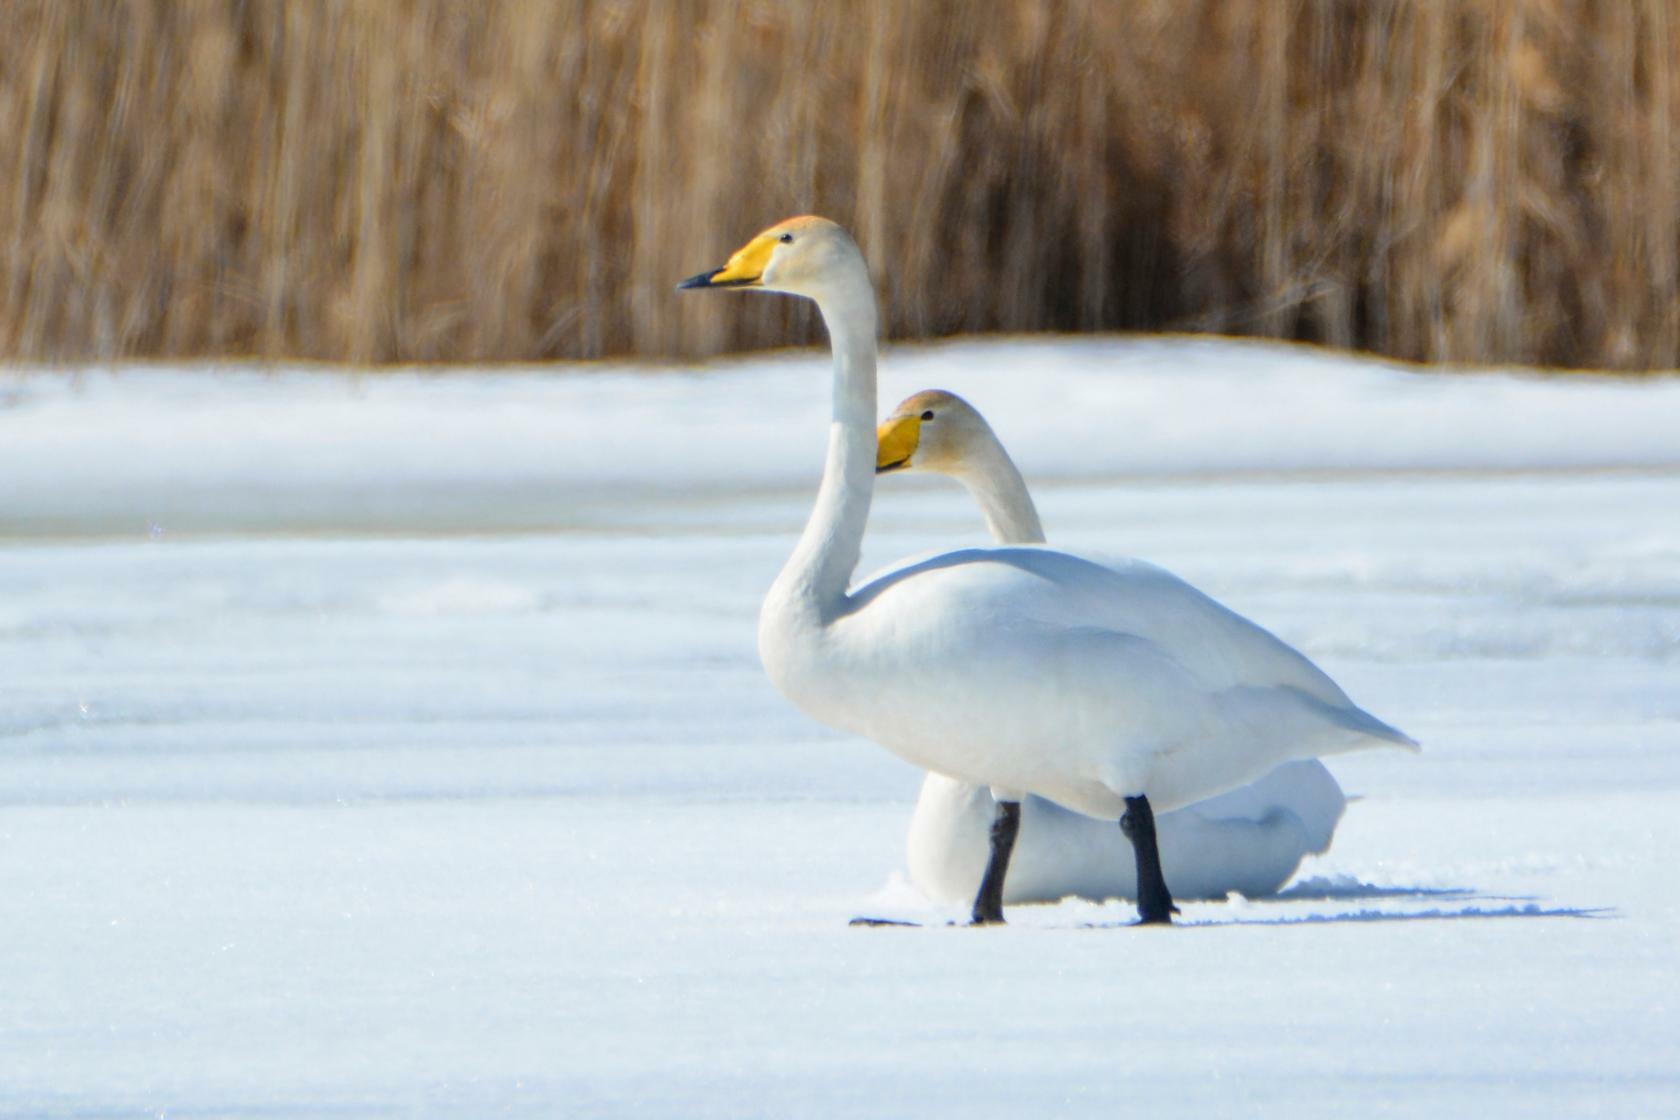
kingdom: Animalia
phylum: Chordata
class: Aves
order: Anseriformes
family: Anatidae
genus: Cygnus
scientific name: Cygnus cygnus
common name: Whooper swan
